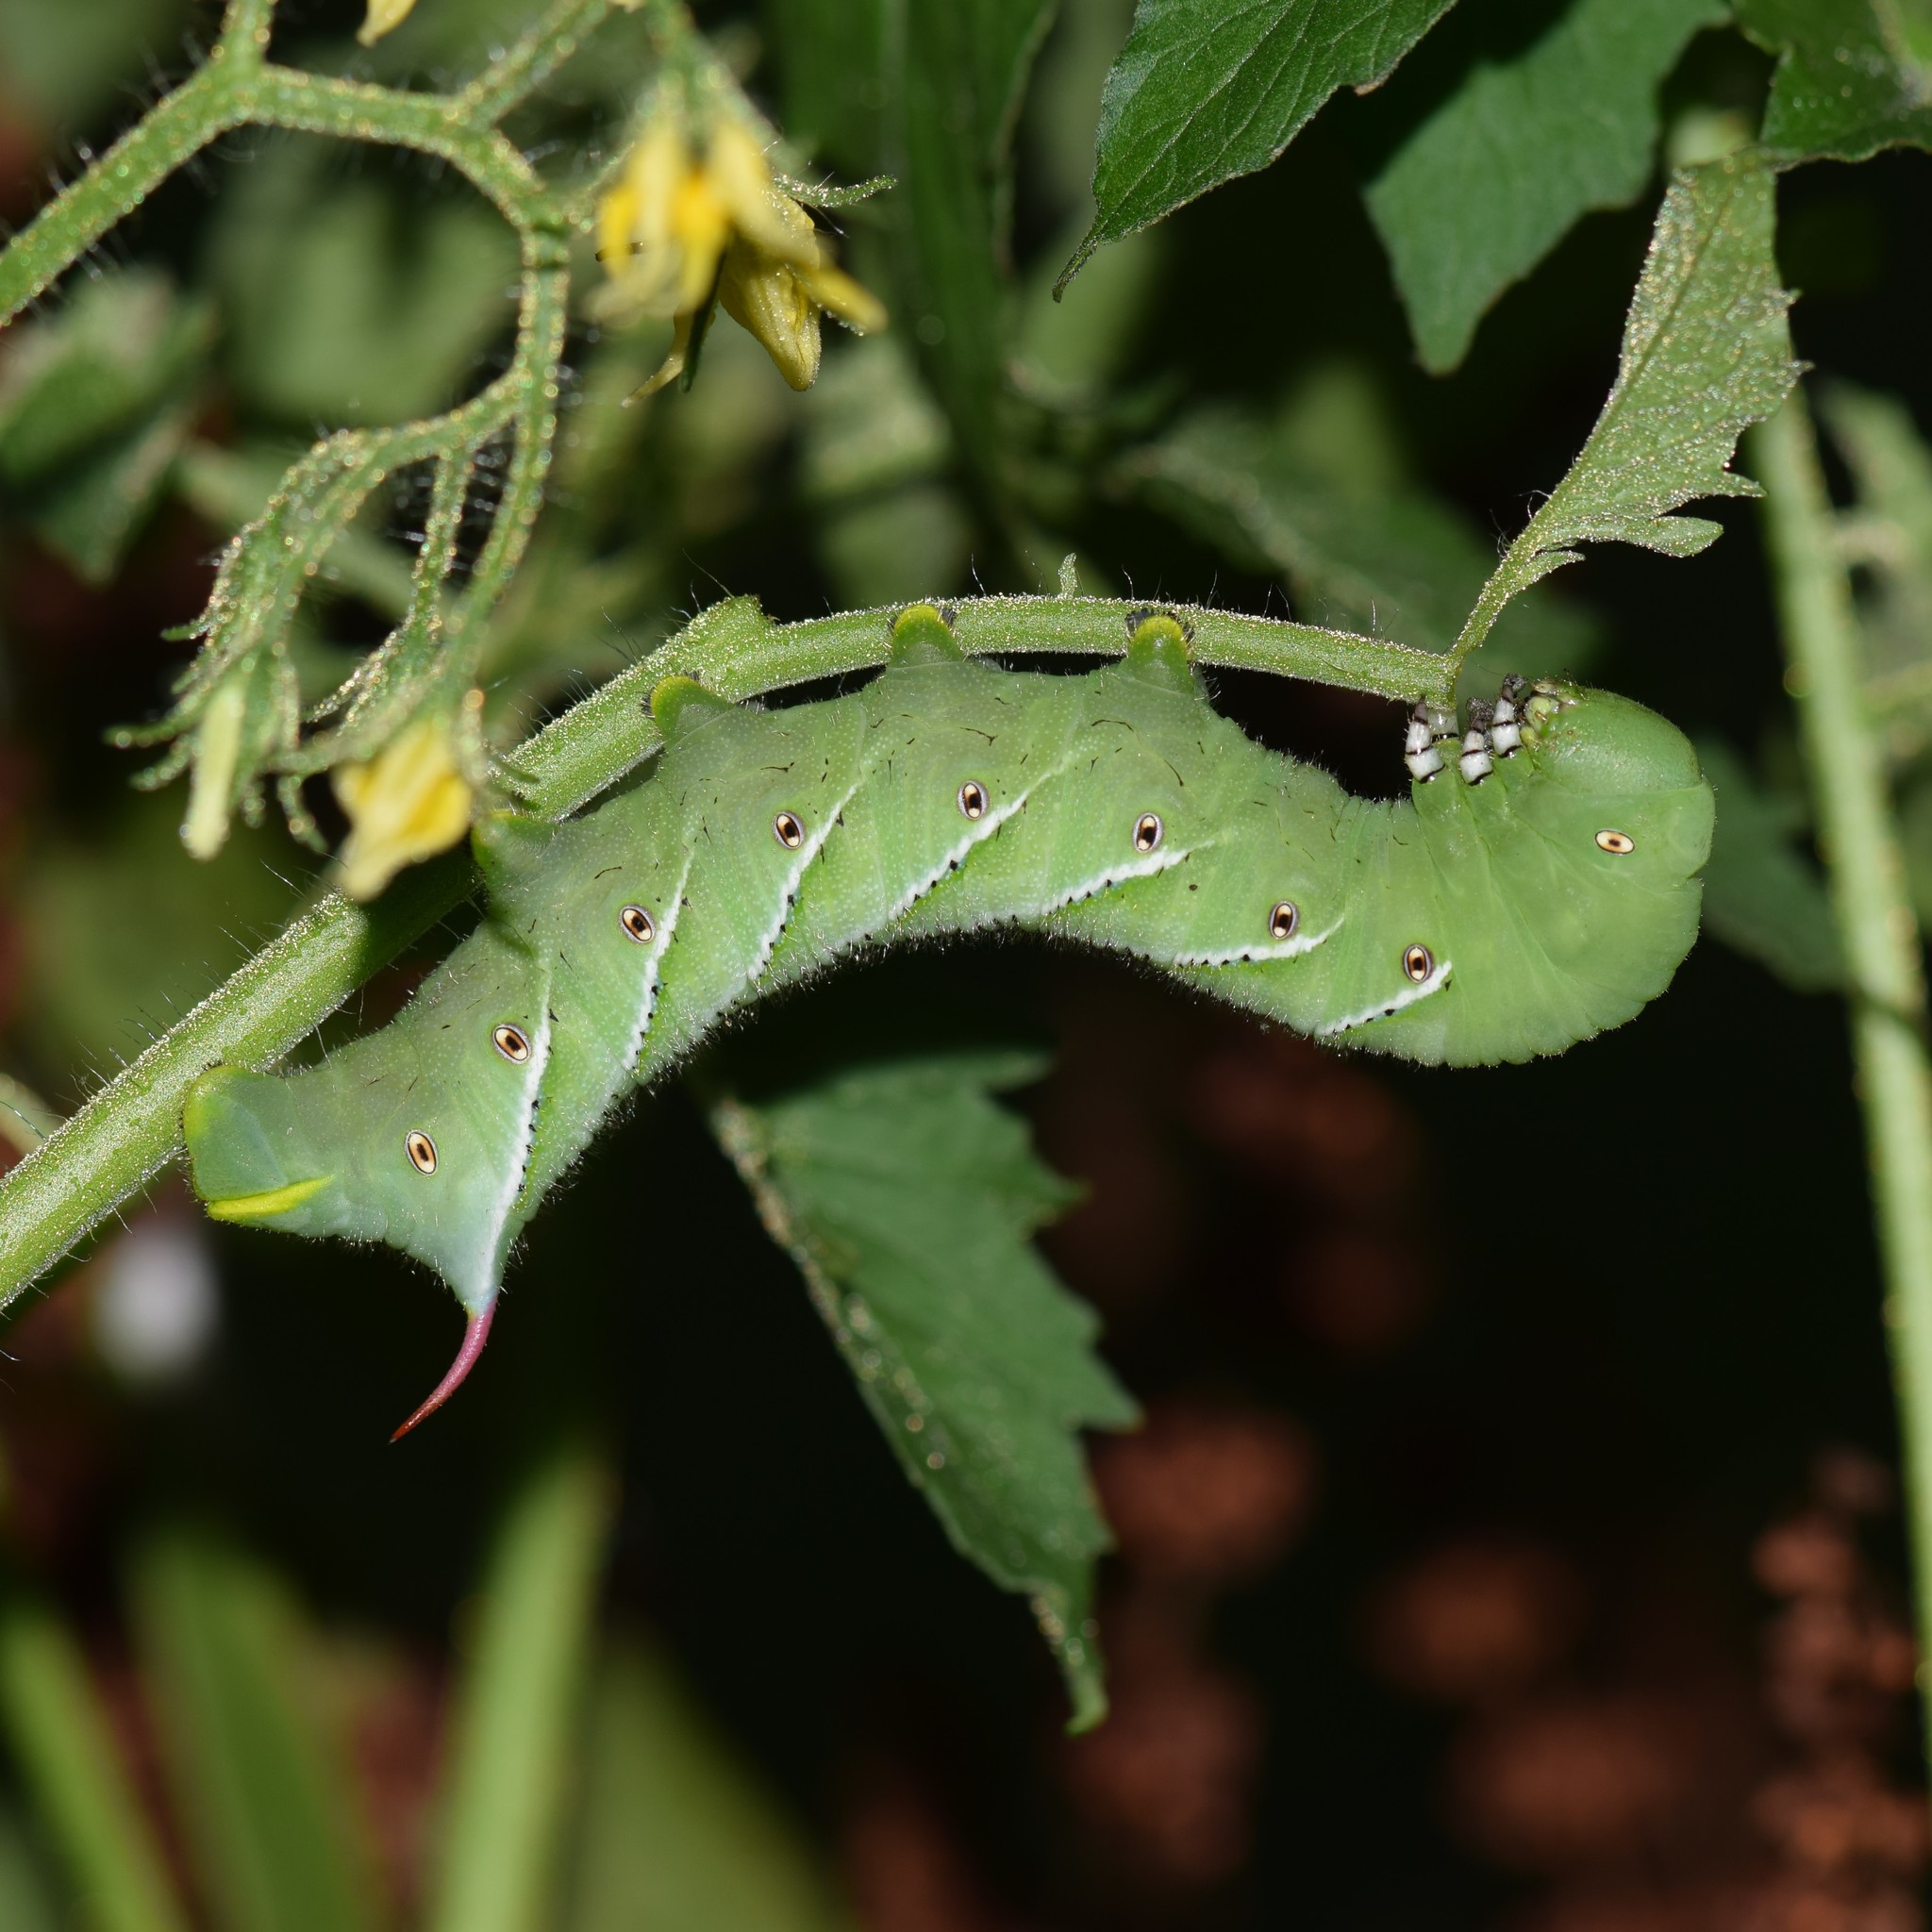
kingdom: Animalia
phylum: Arthropoda
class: Insecta
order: Lepidoptera
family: Sphingidae
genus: Manduca
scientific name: Manduca sexta
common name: Carolina sphinx
